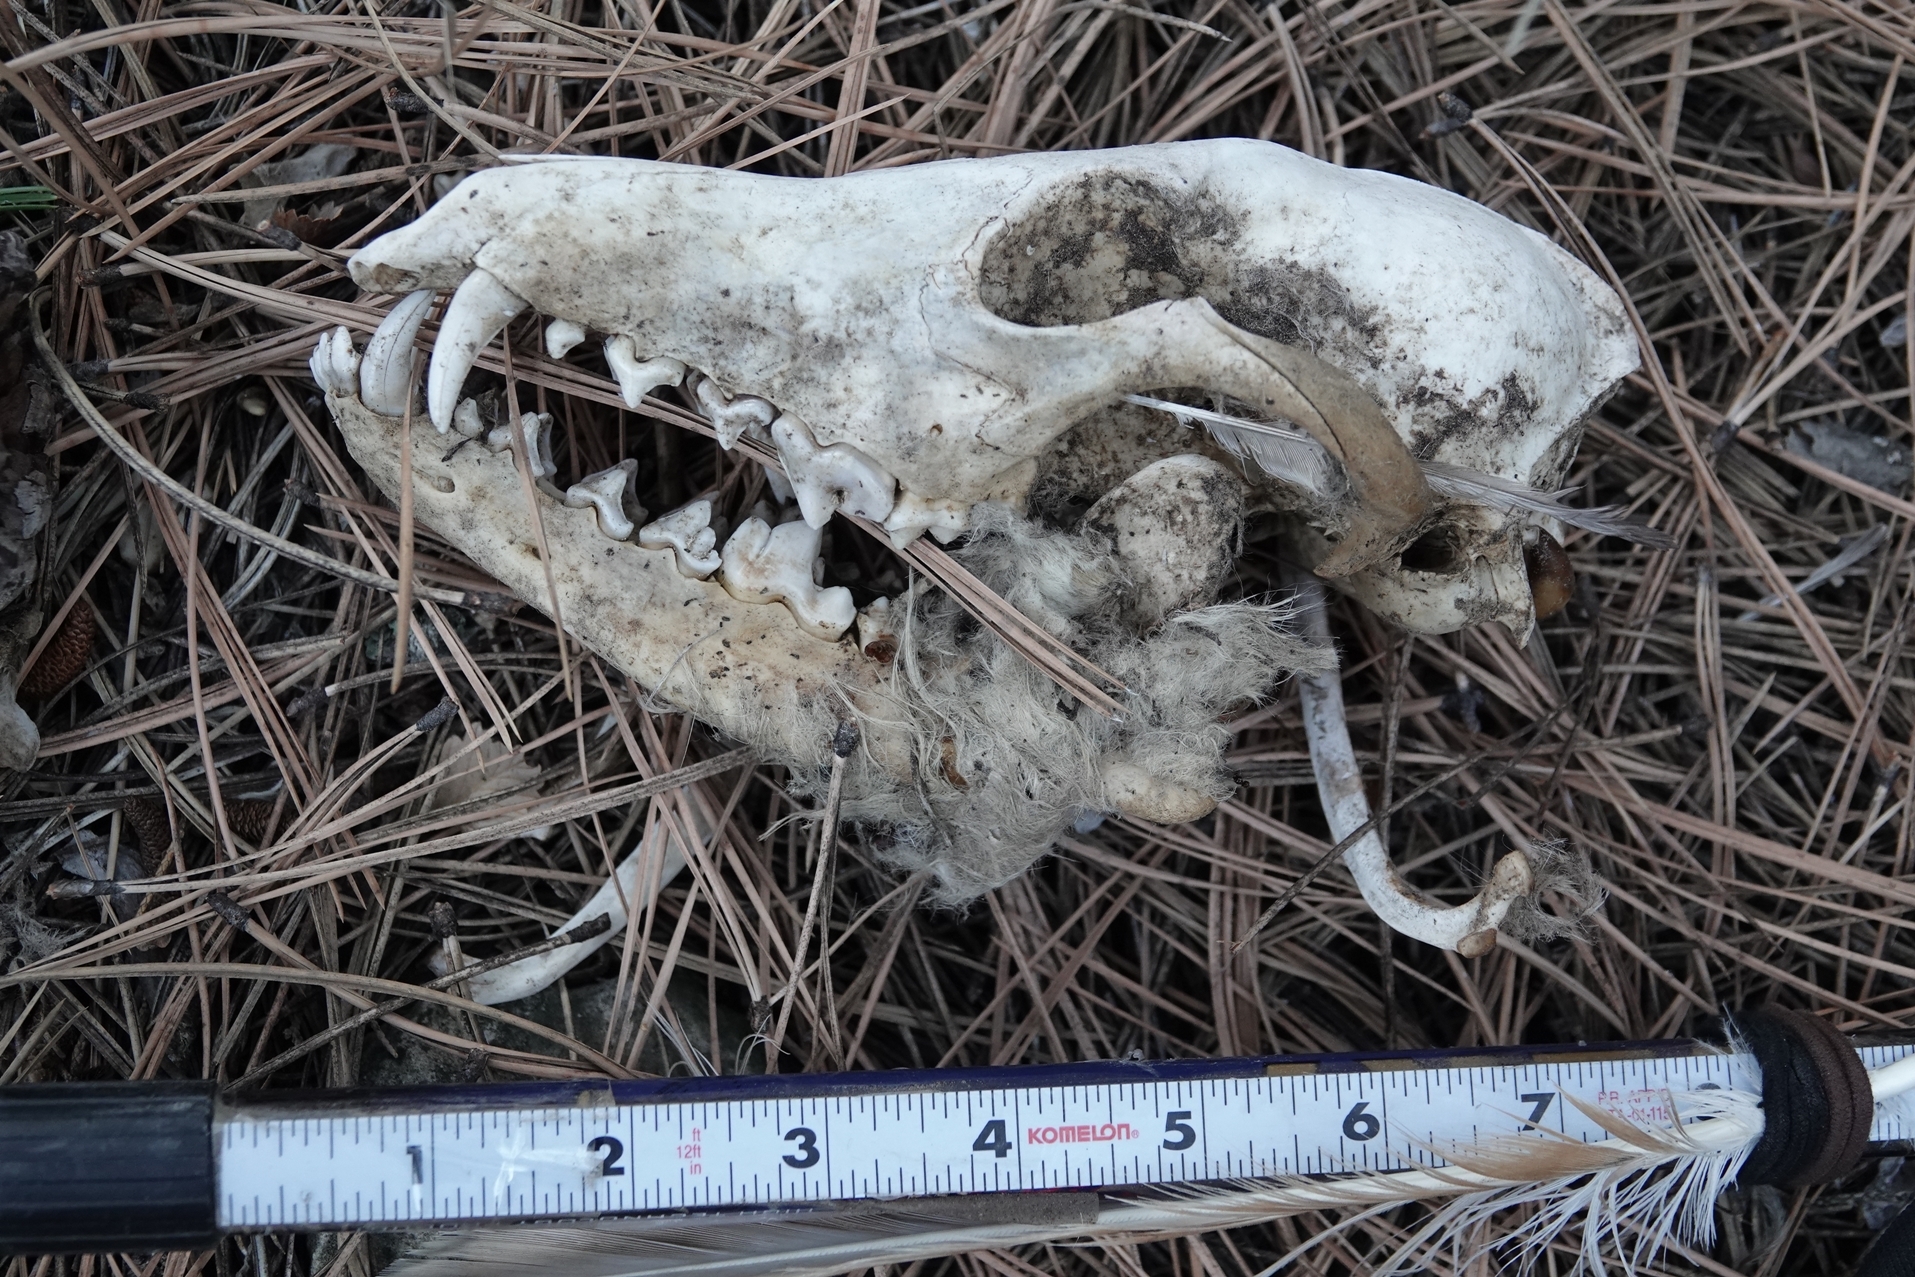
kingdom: Animalia
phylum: Chordata
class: Mammalia
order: Carnivora
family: Canidae
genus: Canis
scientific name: Canis latrans
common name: Coyote
